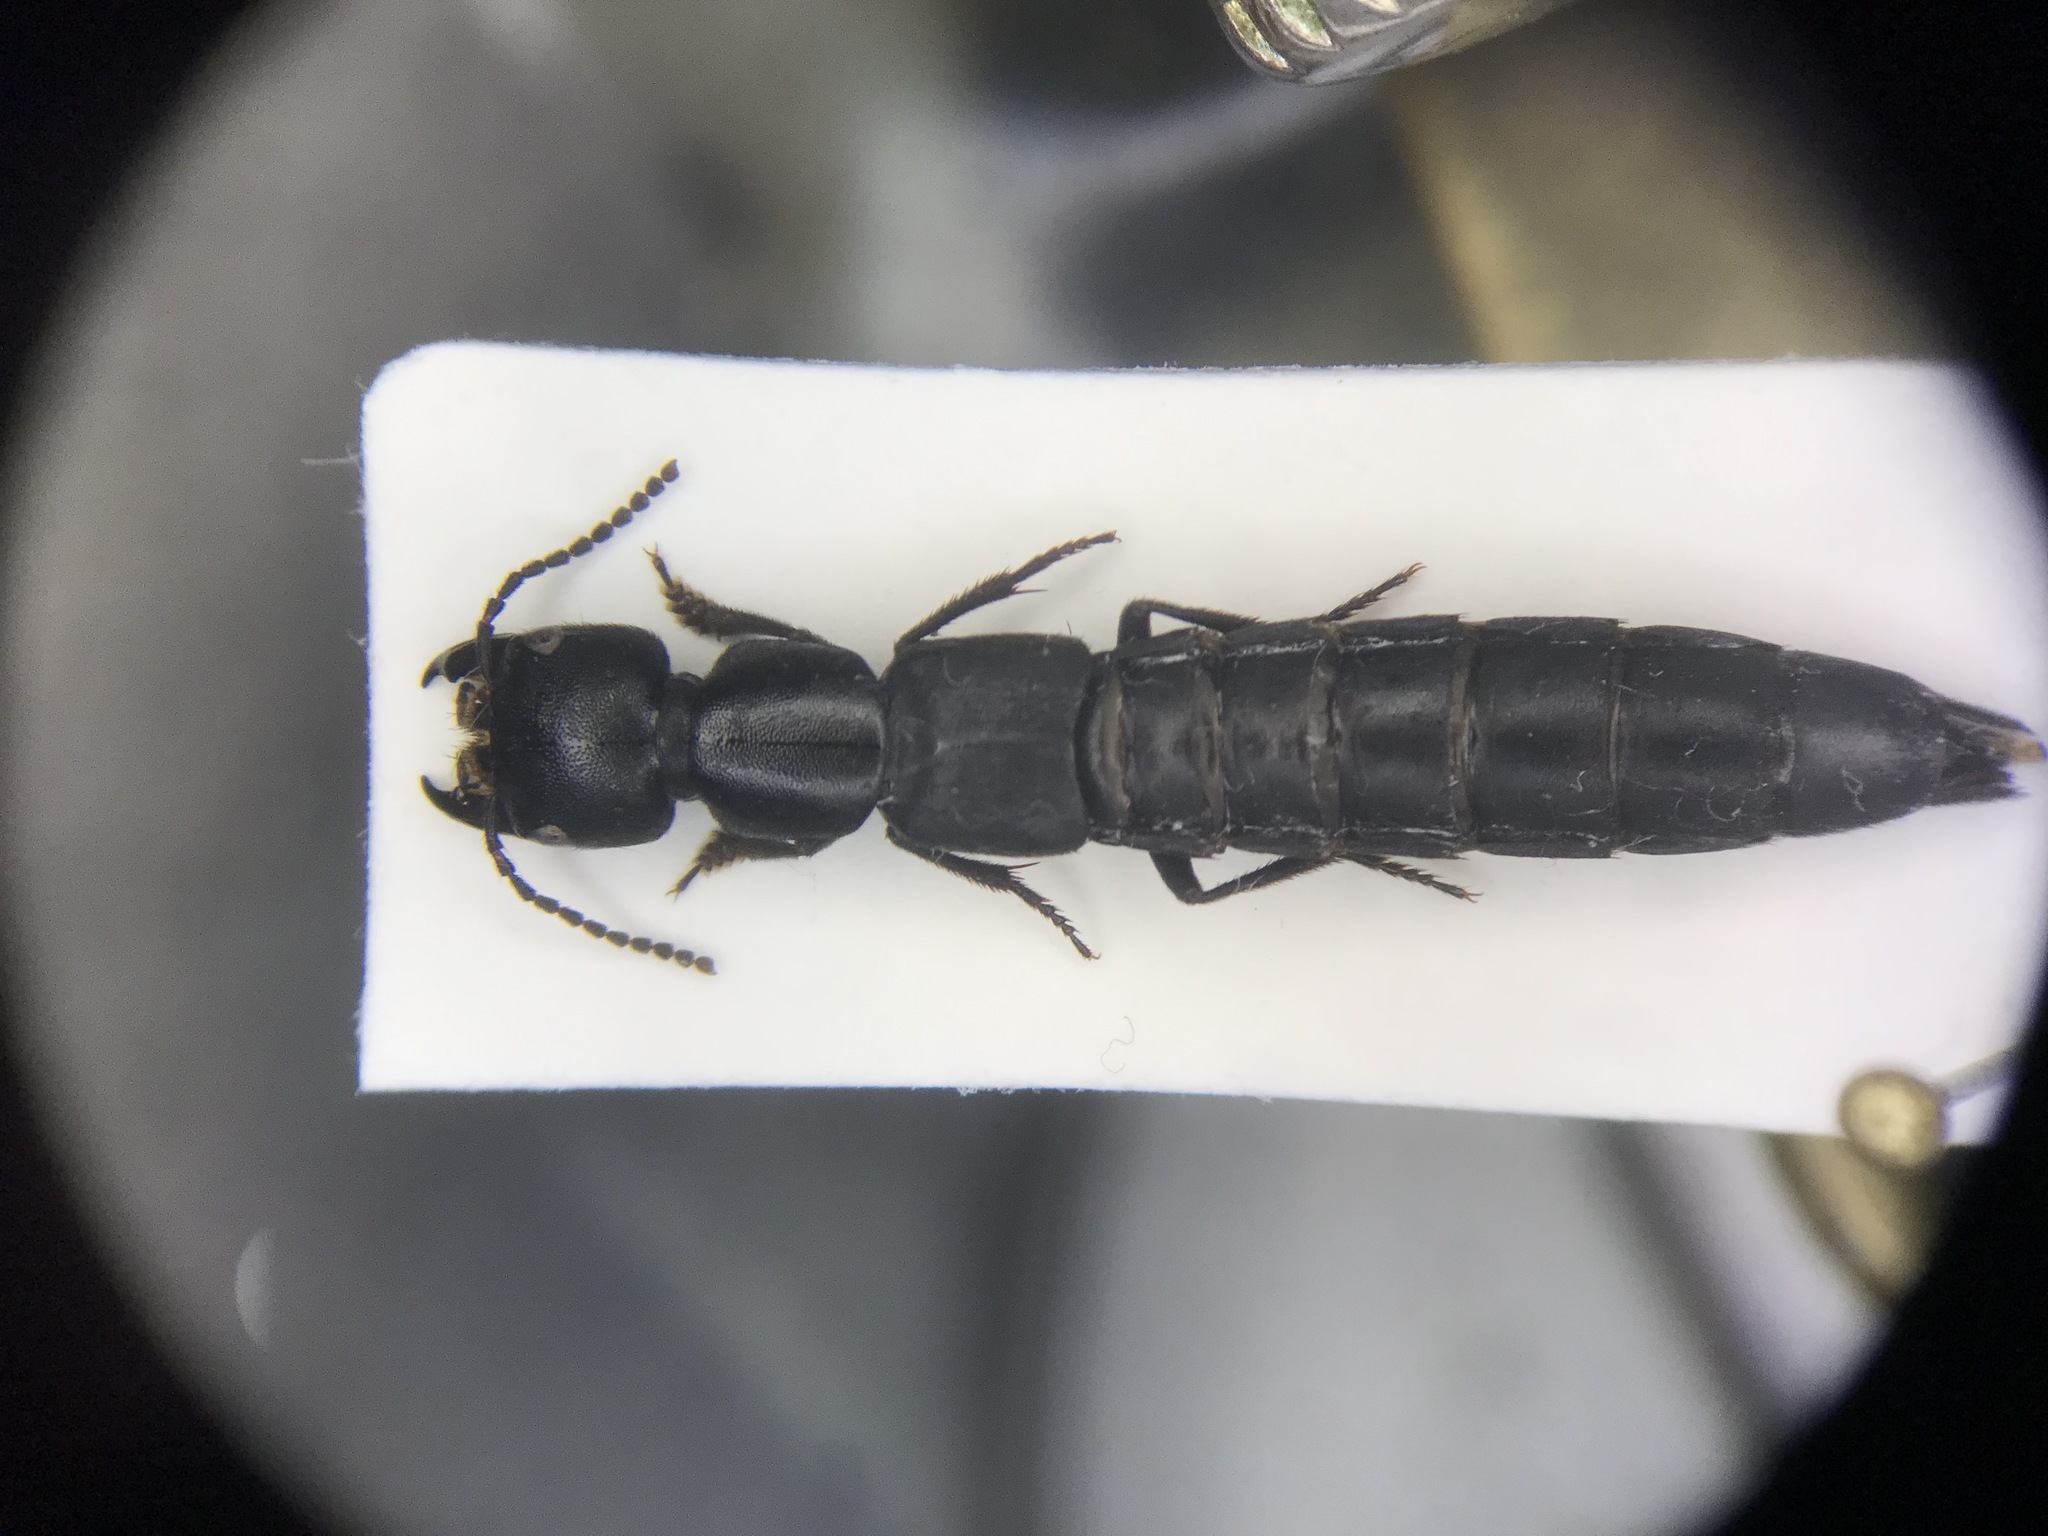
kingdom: Animalia
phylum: Arthropoda
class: Insecta
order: Coleoptera
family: Staphylinidae
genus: Ocypus
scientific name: Ocypus nitens
